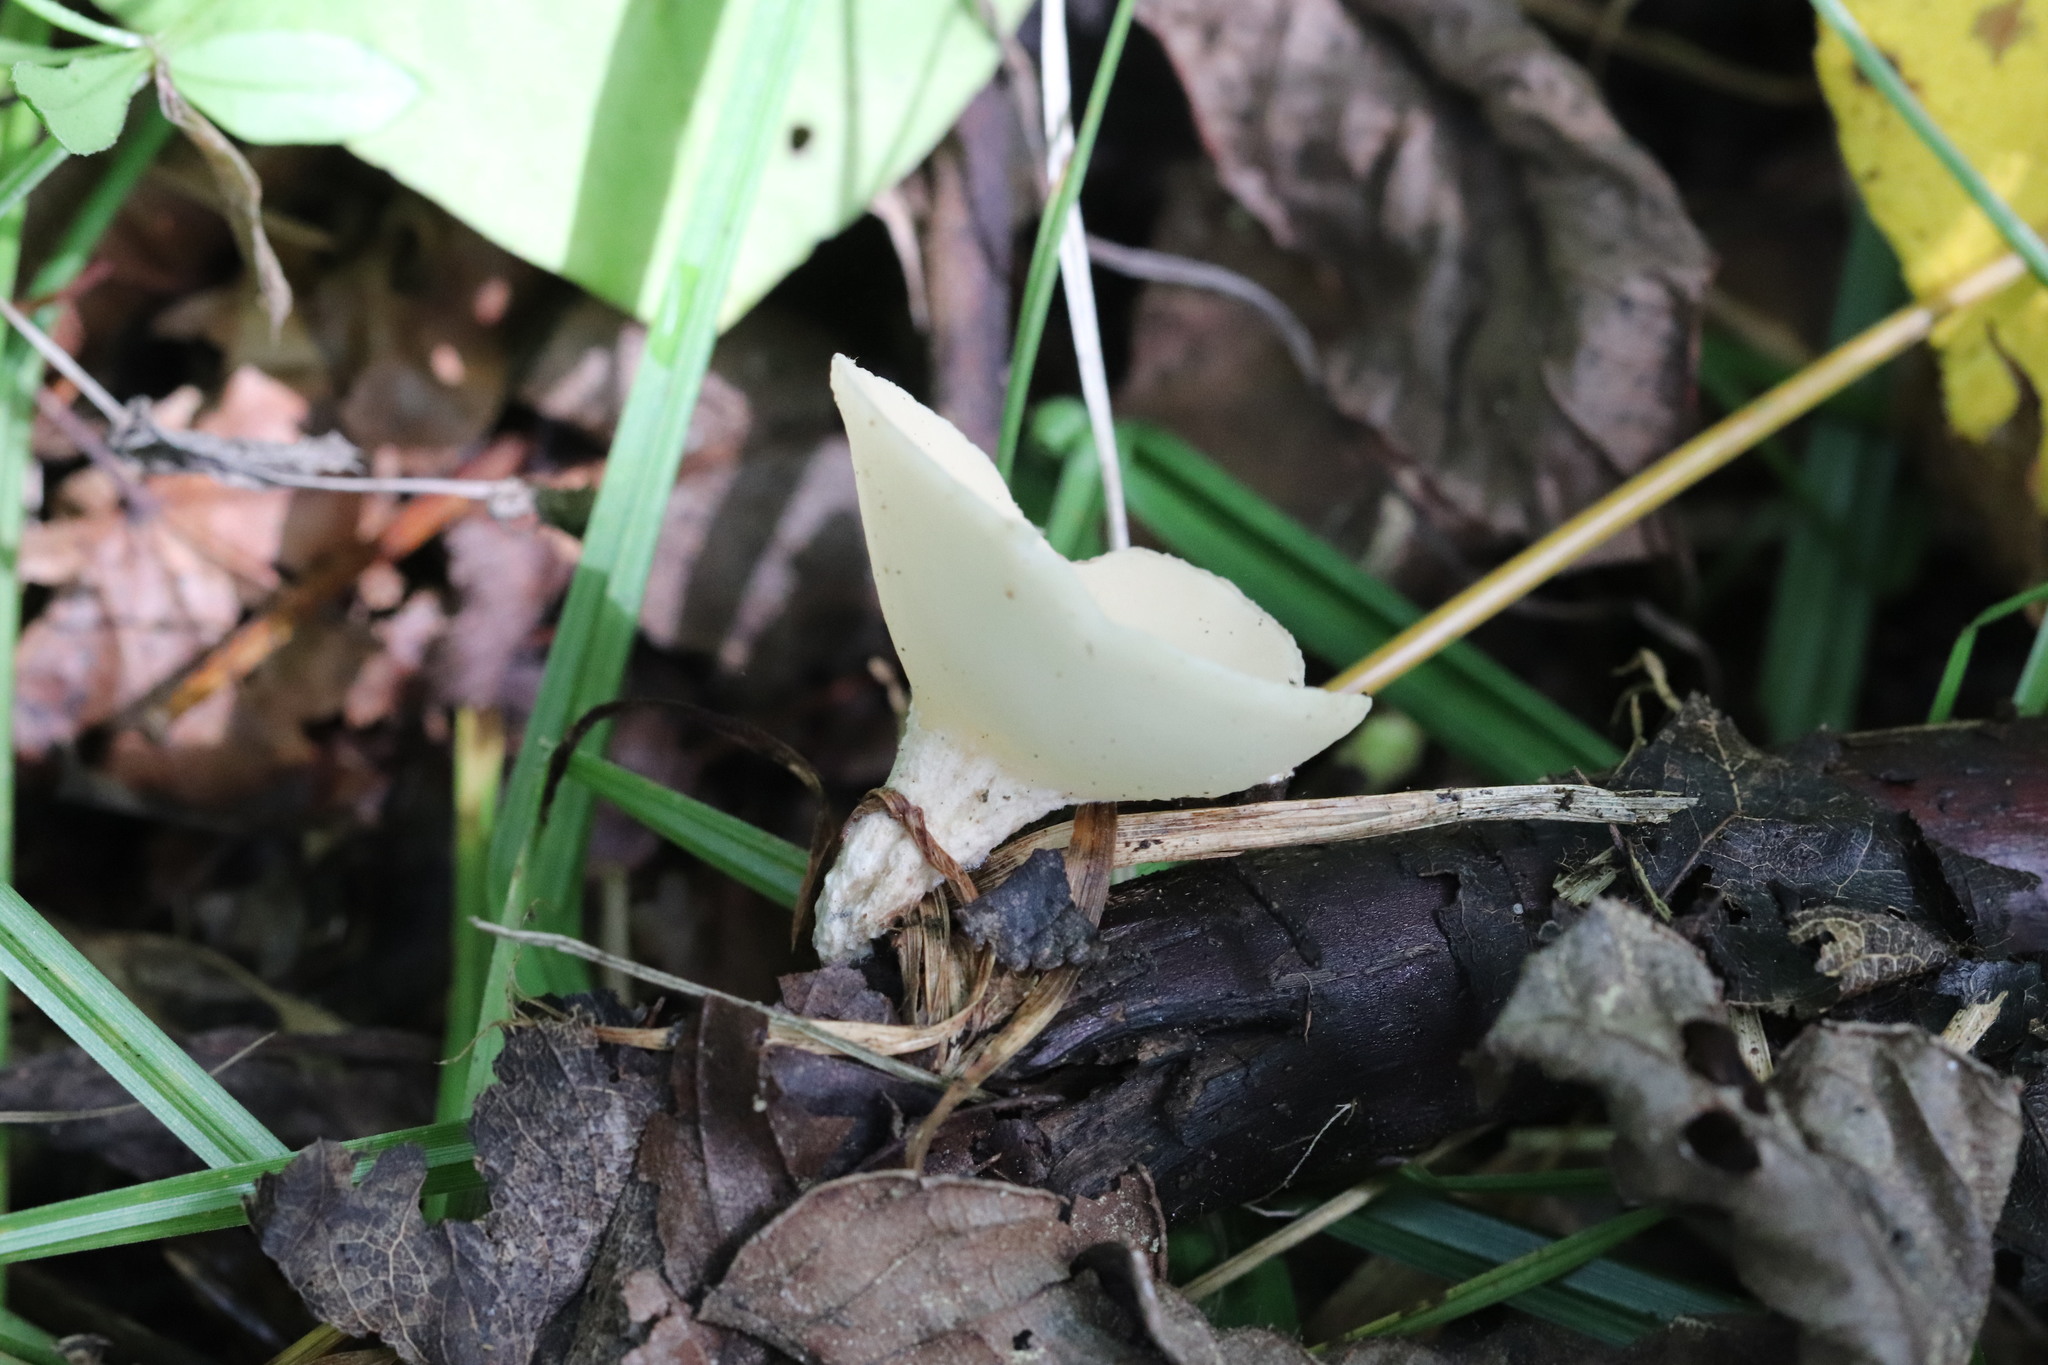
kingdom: Fungi
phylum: Ascomycota
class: Pezizomycetes
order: Pezizales
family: Sarcoscyphaceae
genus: Sarcoscypha
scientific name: Sarcoscypha vassiljevae
